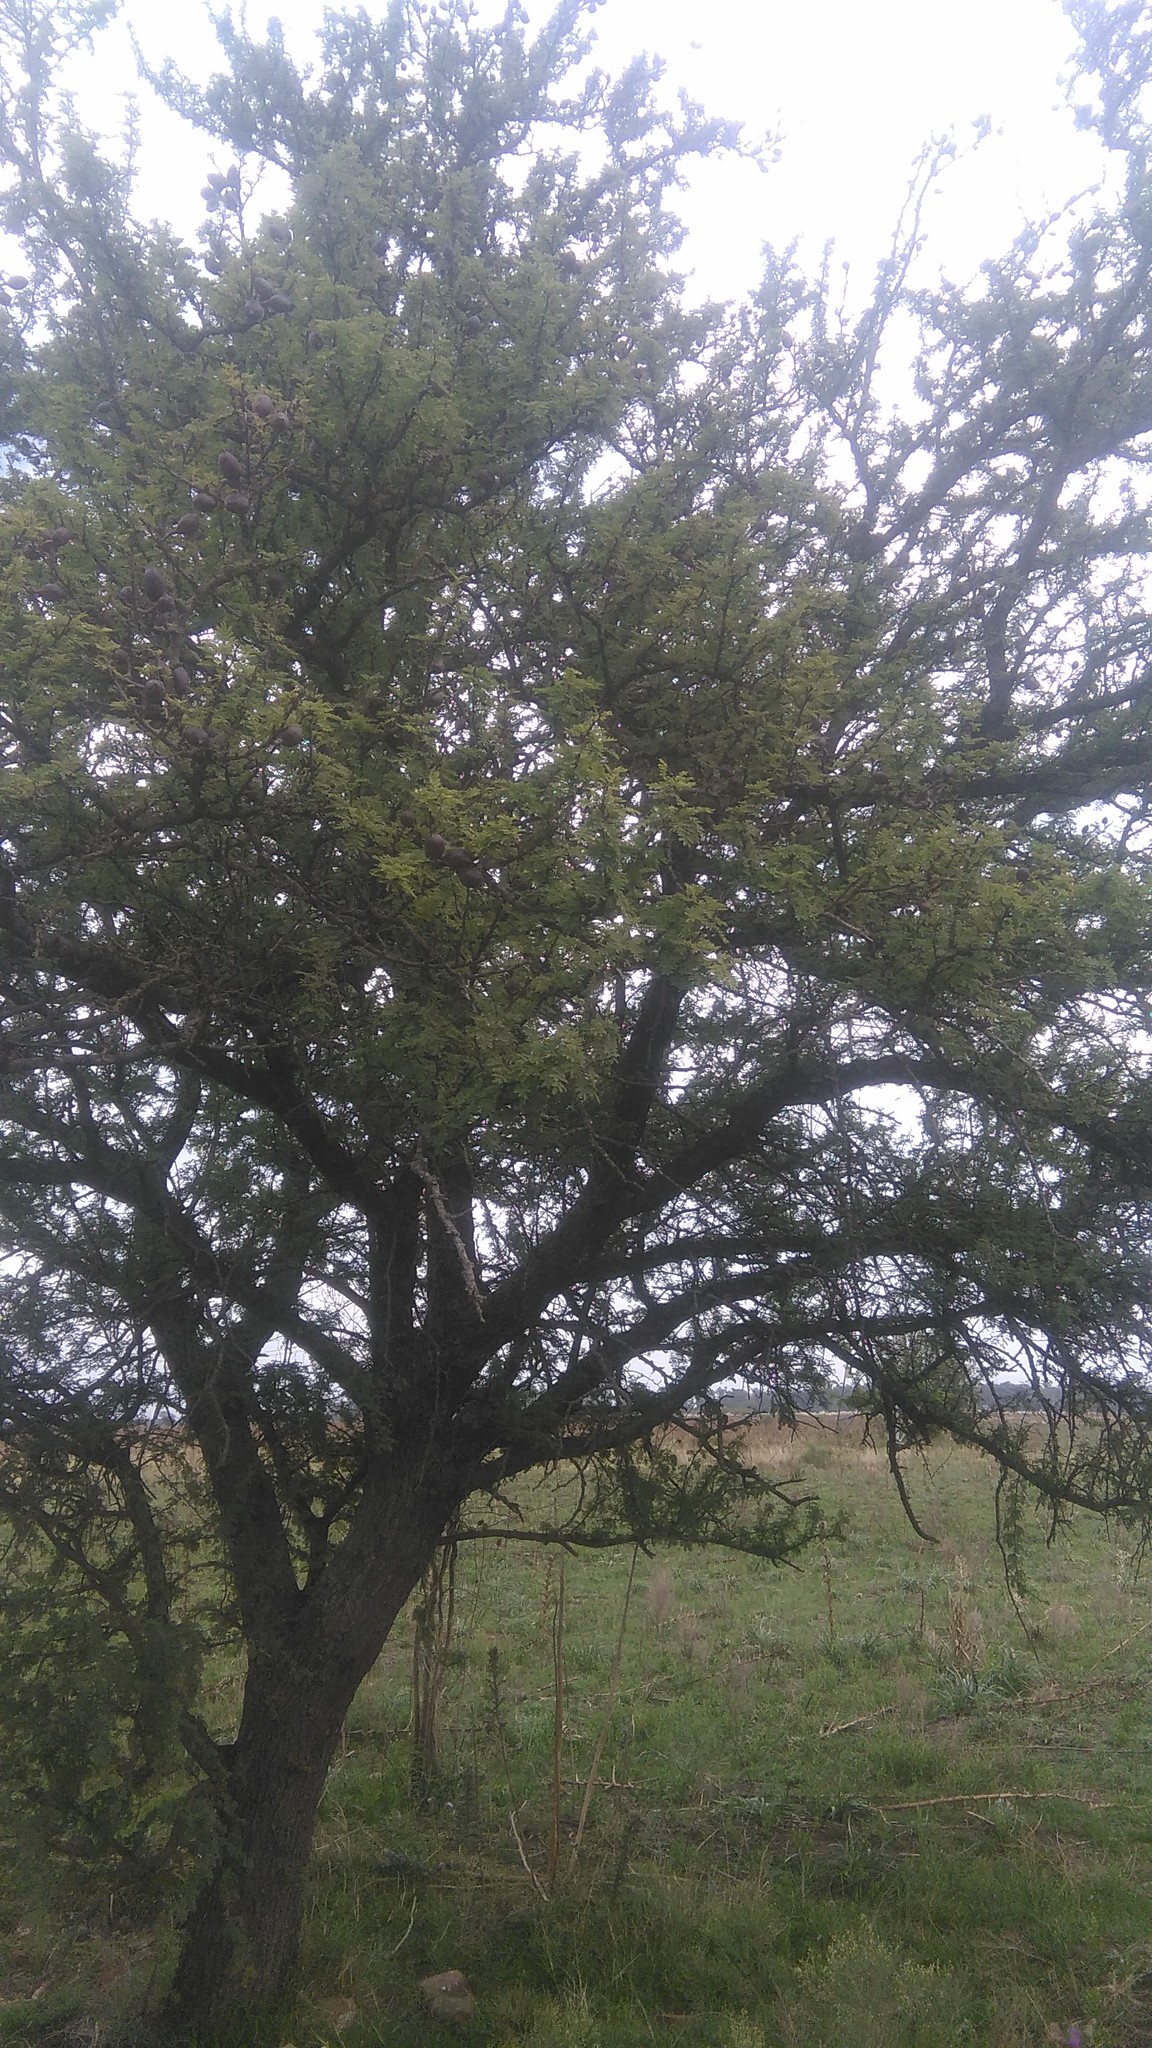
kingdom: Plantae
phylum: Tracheophyta
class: Magnoliopsida
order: Fabales
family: Fabaceae
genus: Vachellia
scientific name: Vachellia caven
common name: Roman cassie
